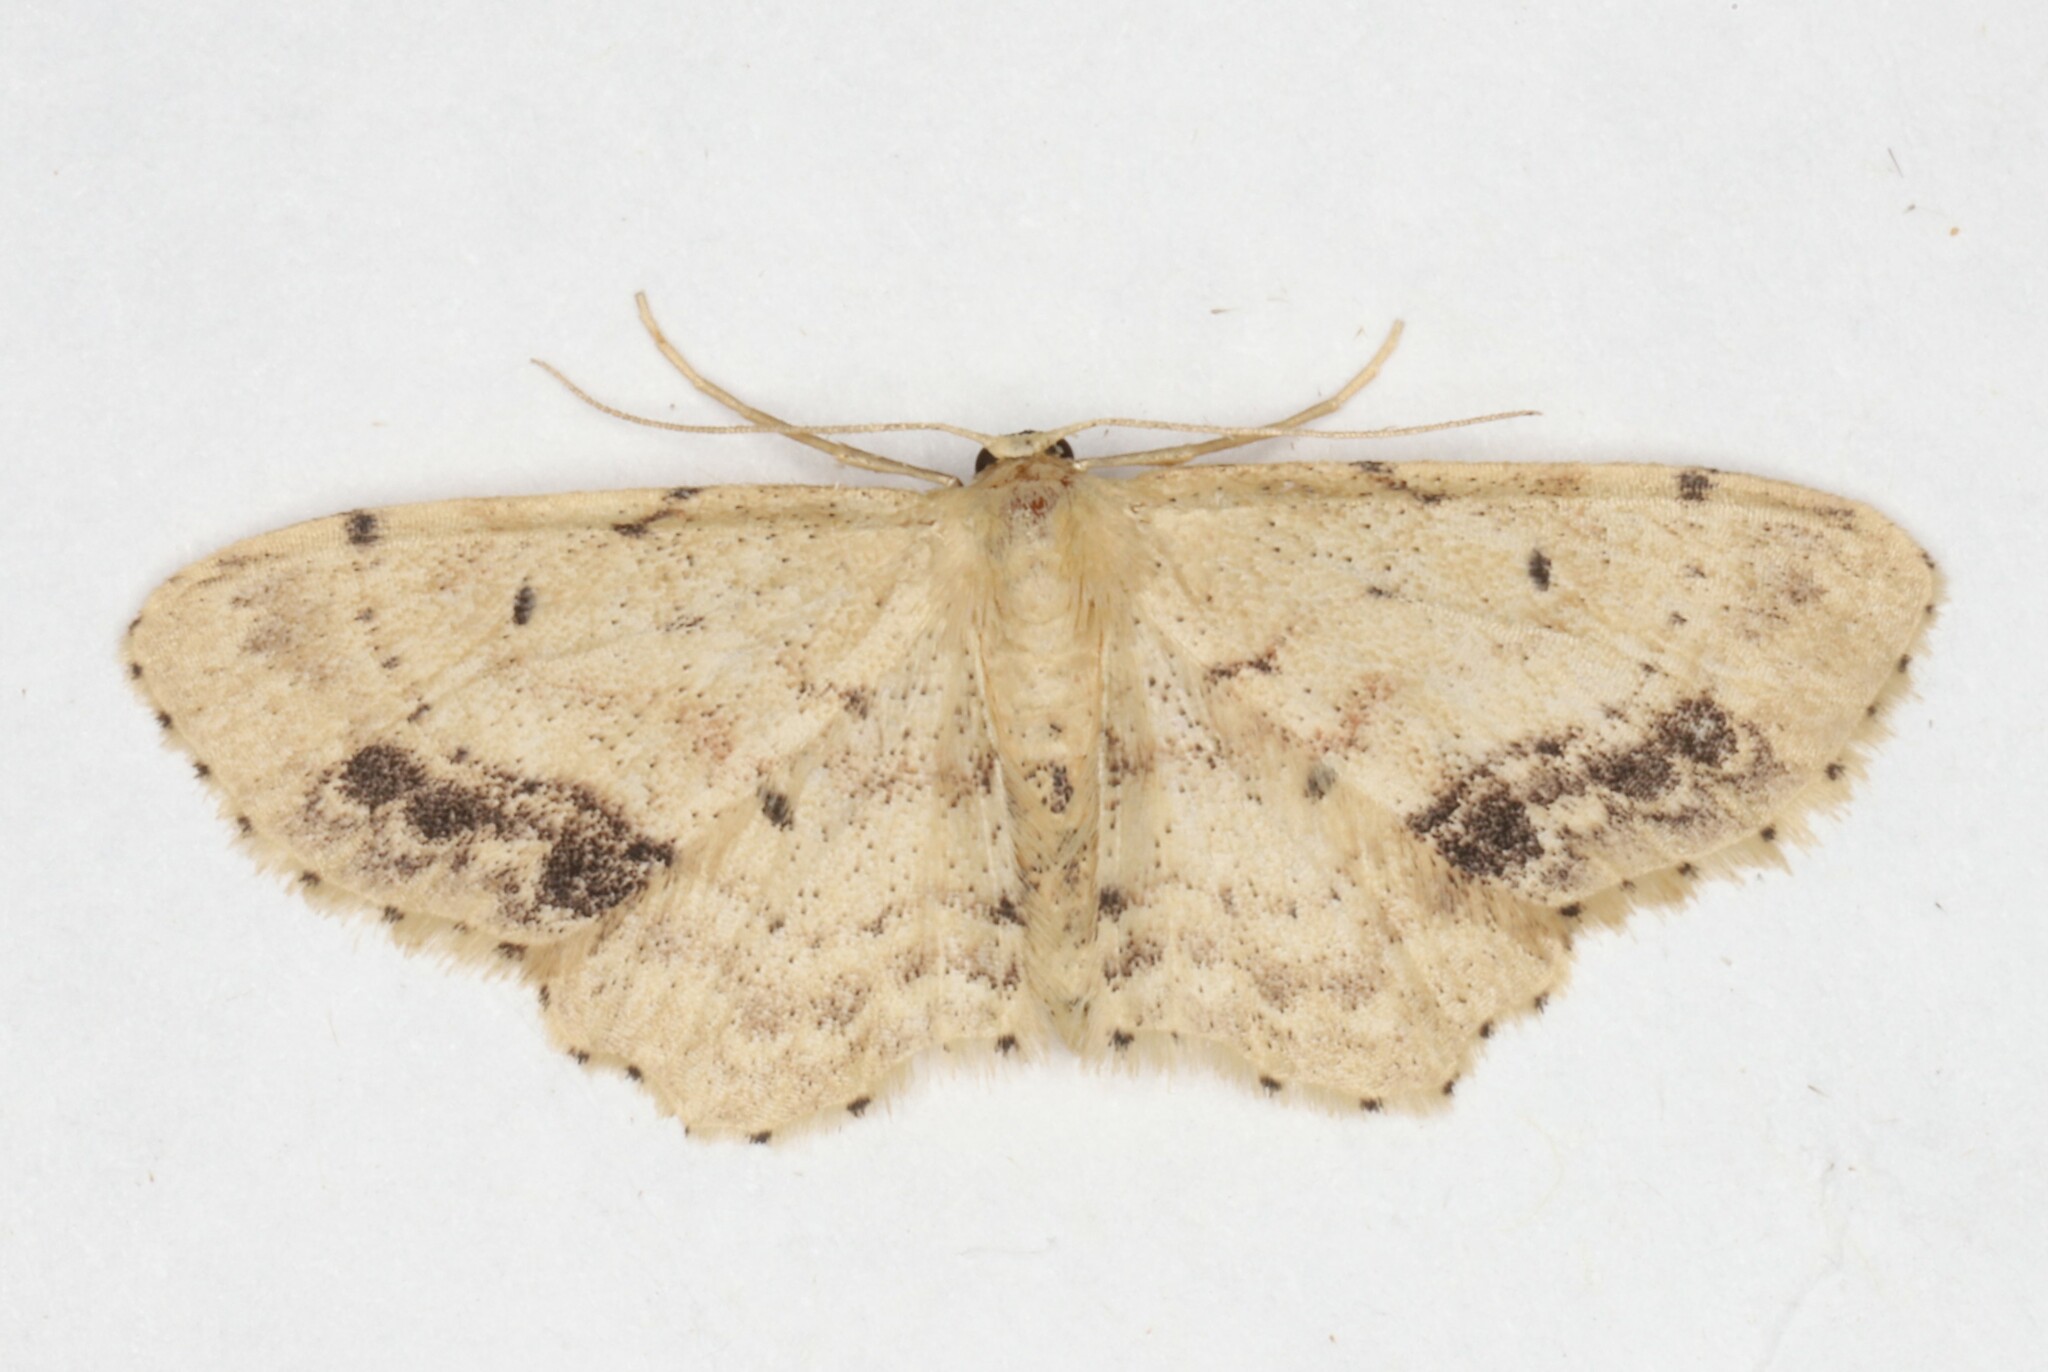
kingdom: Animalia
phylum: Arthropoda
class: Insecta
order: Lepidoptera
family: Geometridae
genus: Idaea
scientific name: Idaea dimidiata
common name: Single-dotted wave
